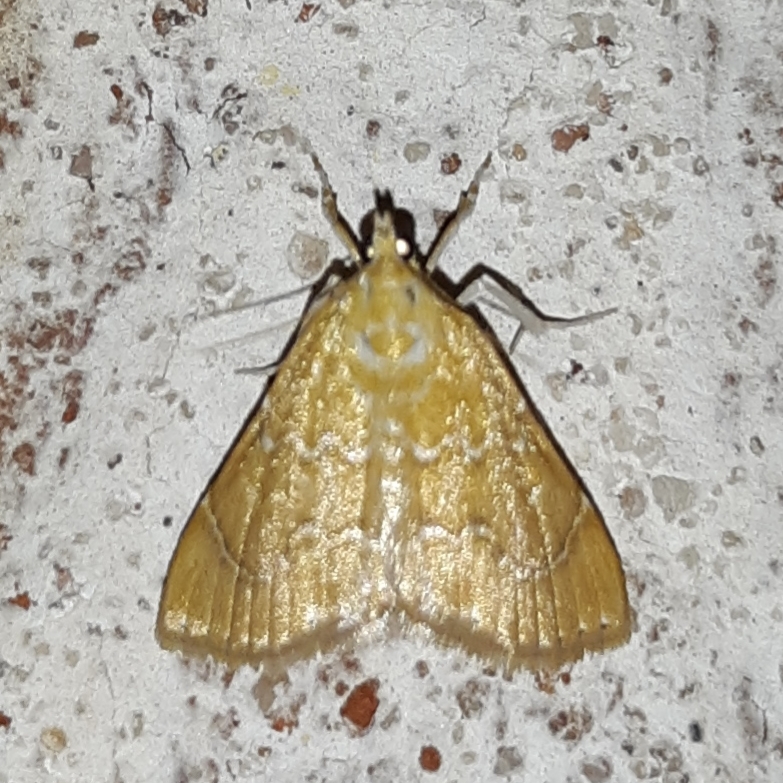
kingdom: Animalia
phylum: Arthropoda
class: Insecta
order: Lepidoptera
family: Crambidae
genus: Glaphyria
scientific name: Glaphyria sesquistrialis
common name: White-roped glaphyria
